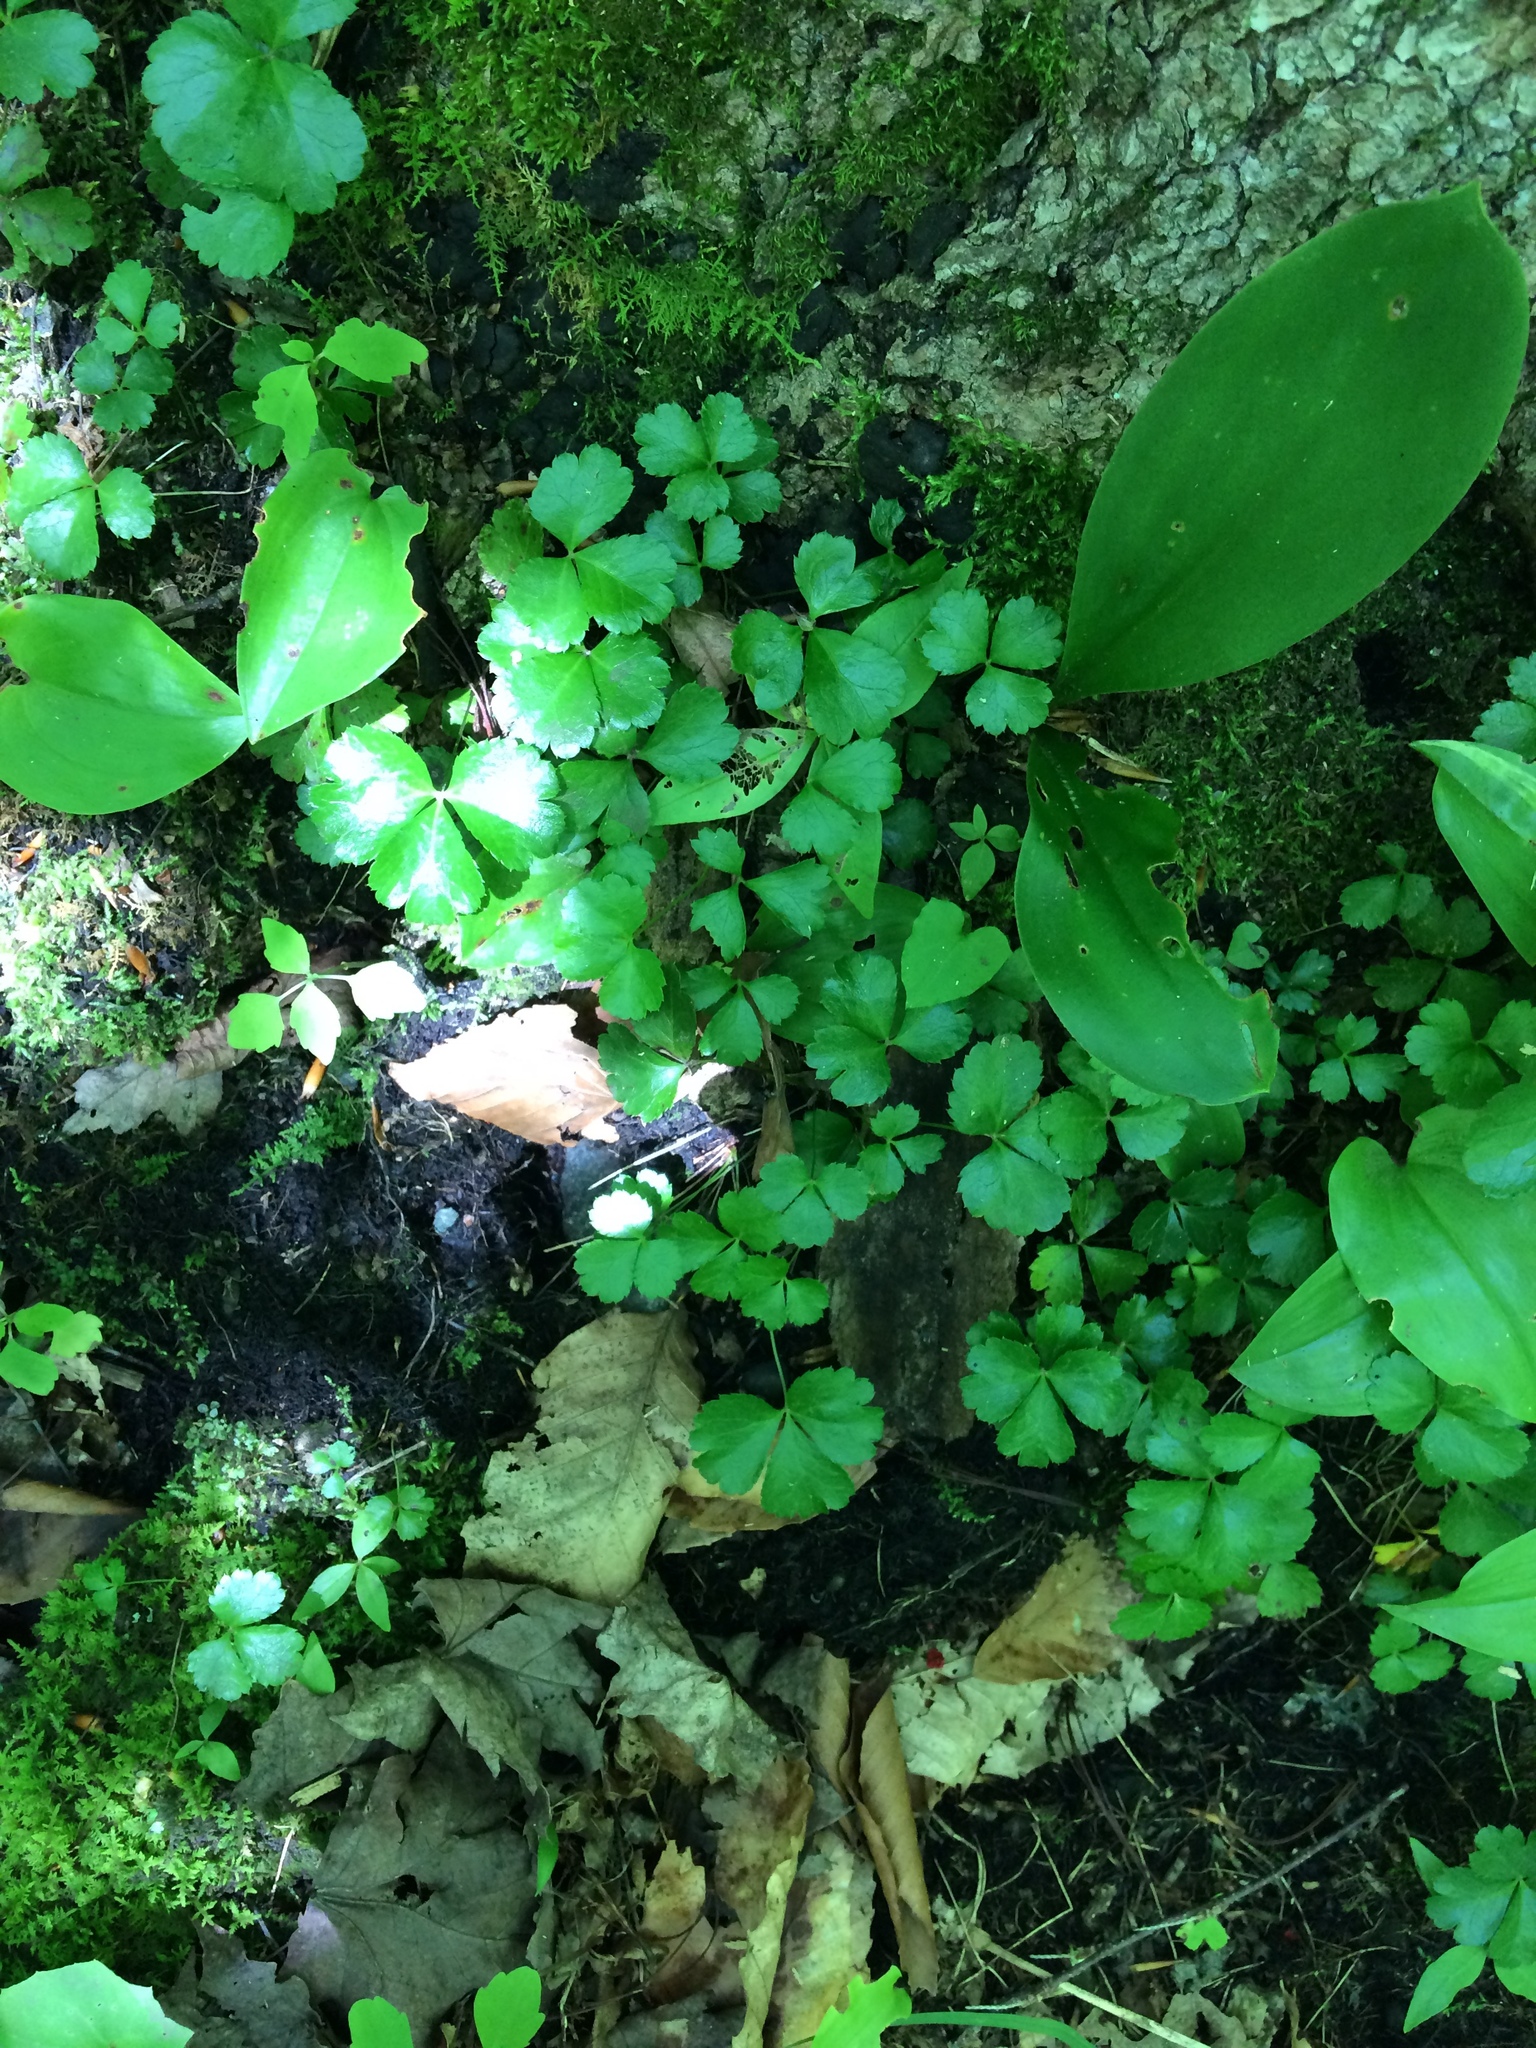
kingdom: Plantae
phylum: Tracheophyta
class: Magnoliopsida
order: Ranunculales
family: Ranunculaceae
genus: Coptis
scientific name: Coptis trifolia
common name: Canker-root
